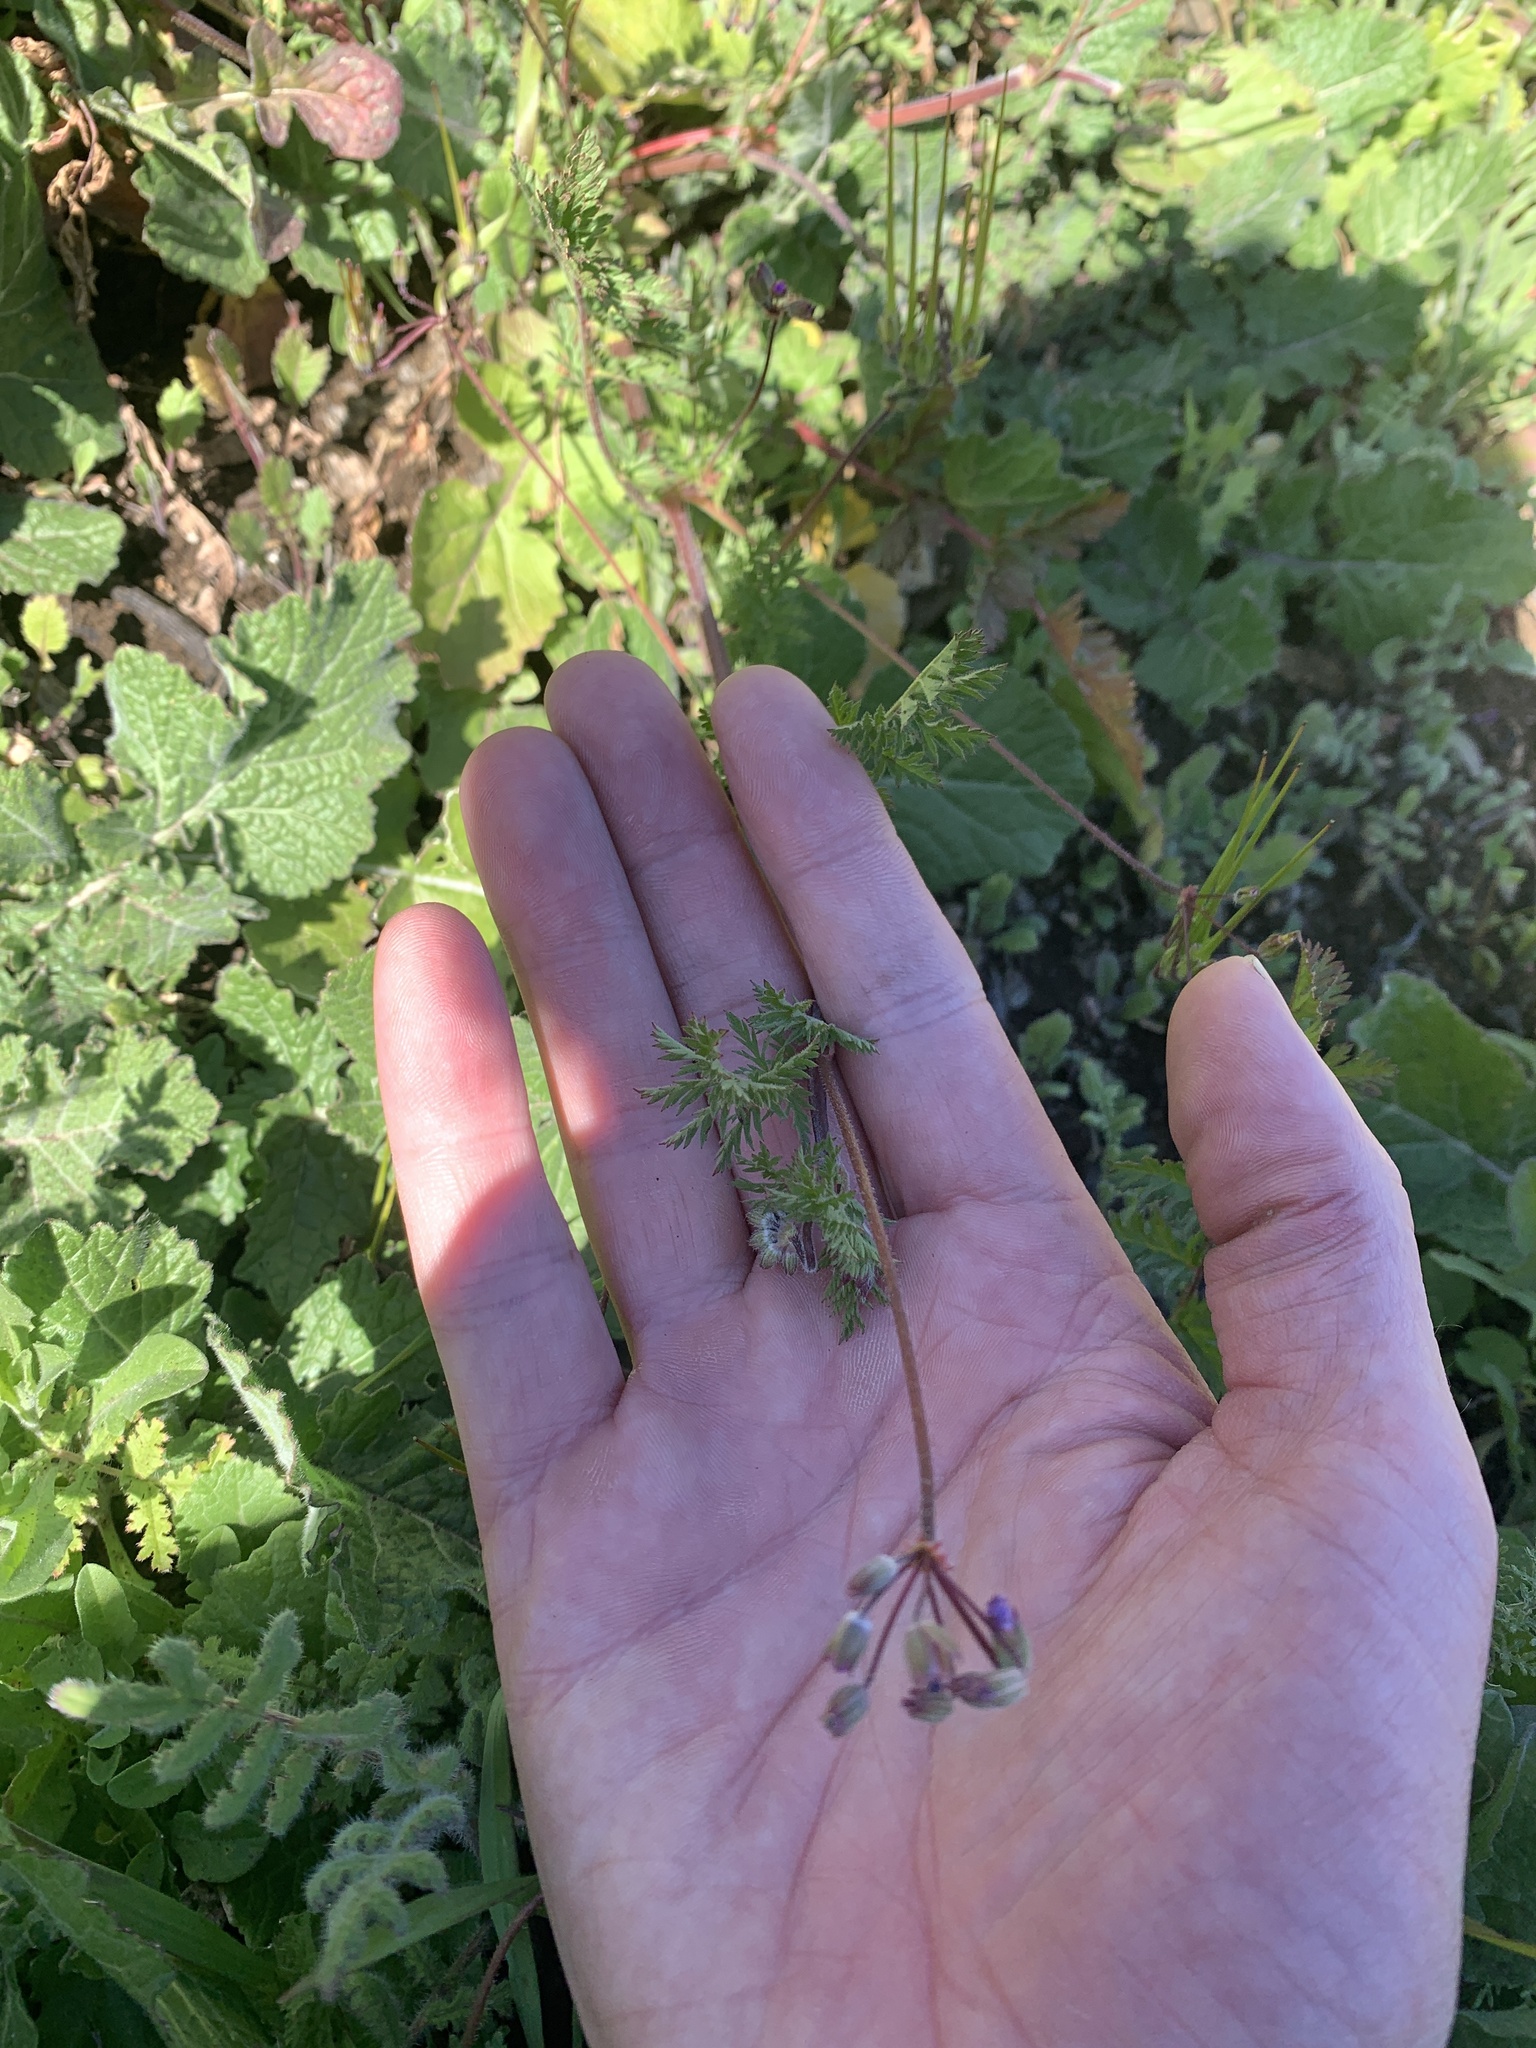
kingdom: Plantae
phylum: Tracheophyta
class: Magnoliopsida
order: Geraniales
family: Geraniaceae
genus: Erodium
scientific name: Erodium cicutarium
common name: Common stork's-bill
